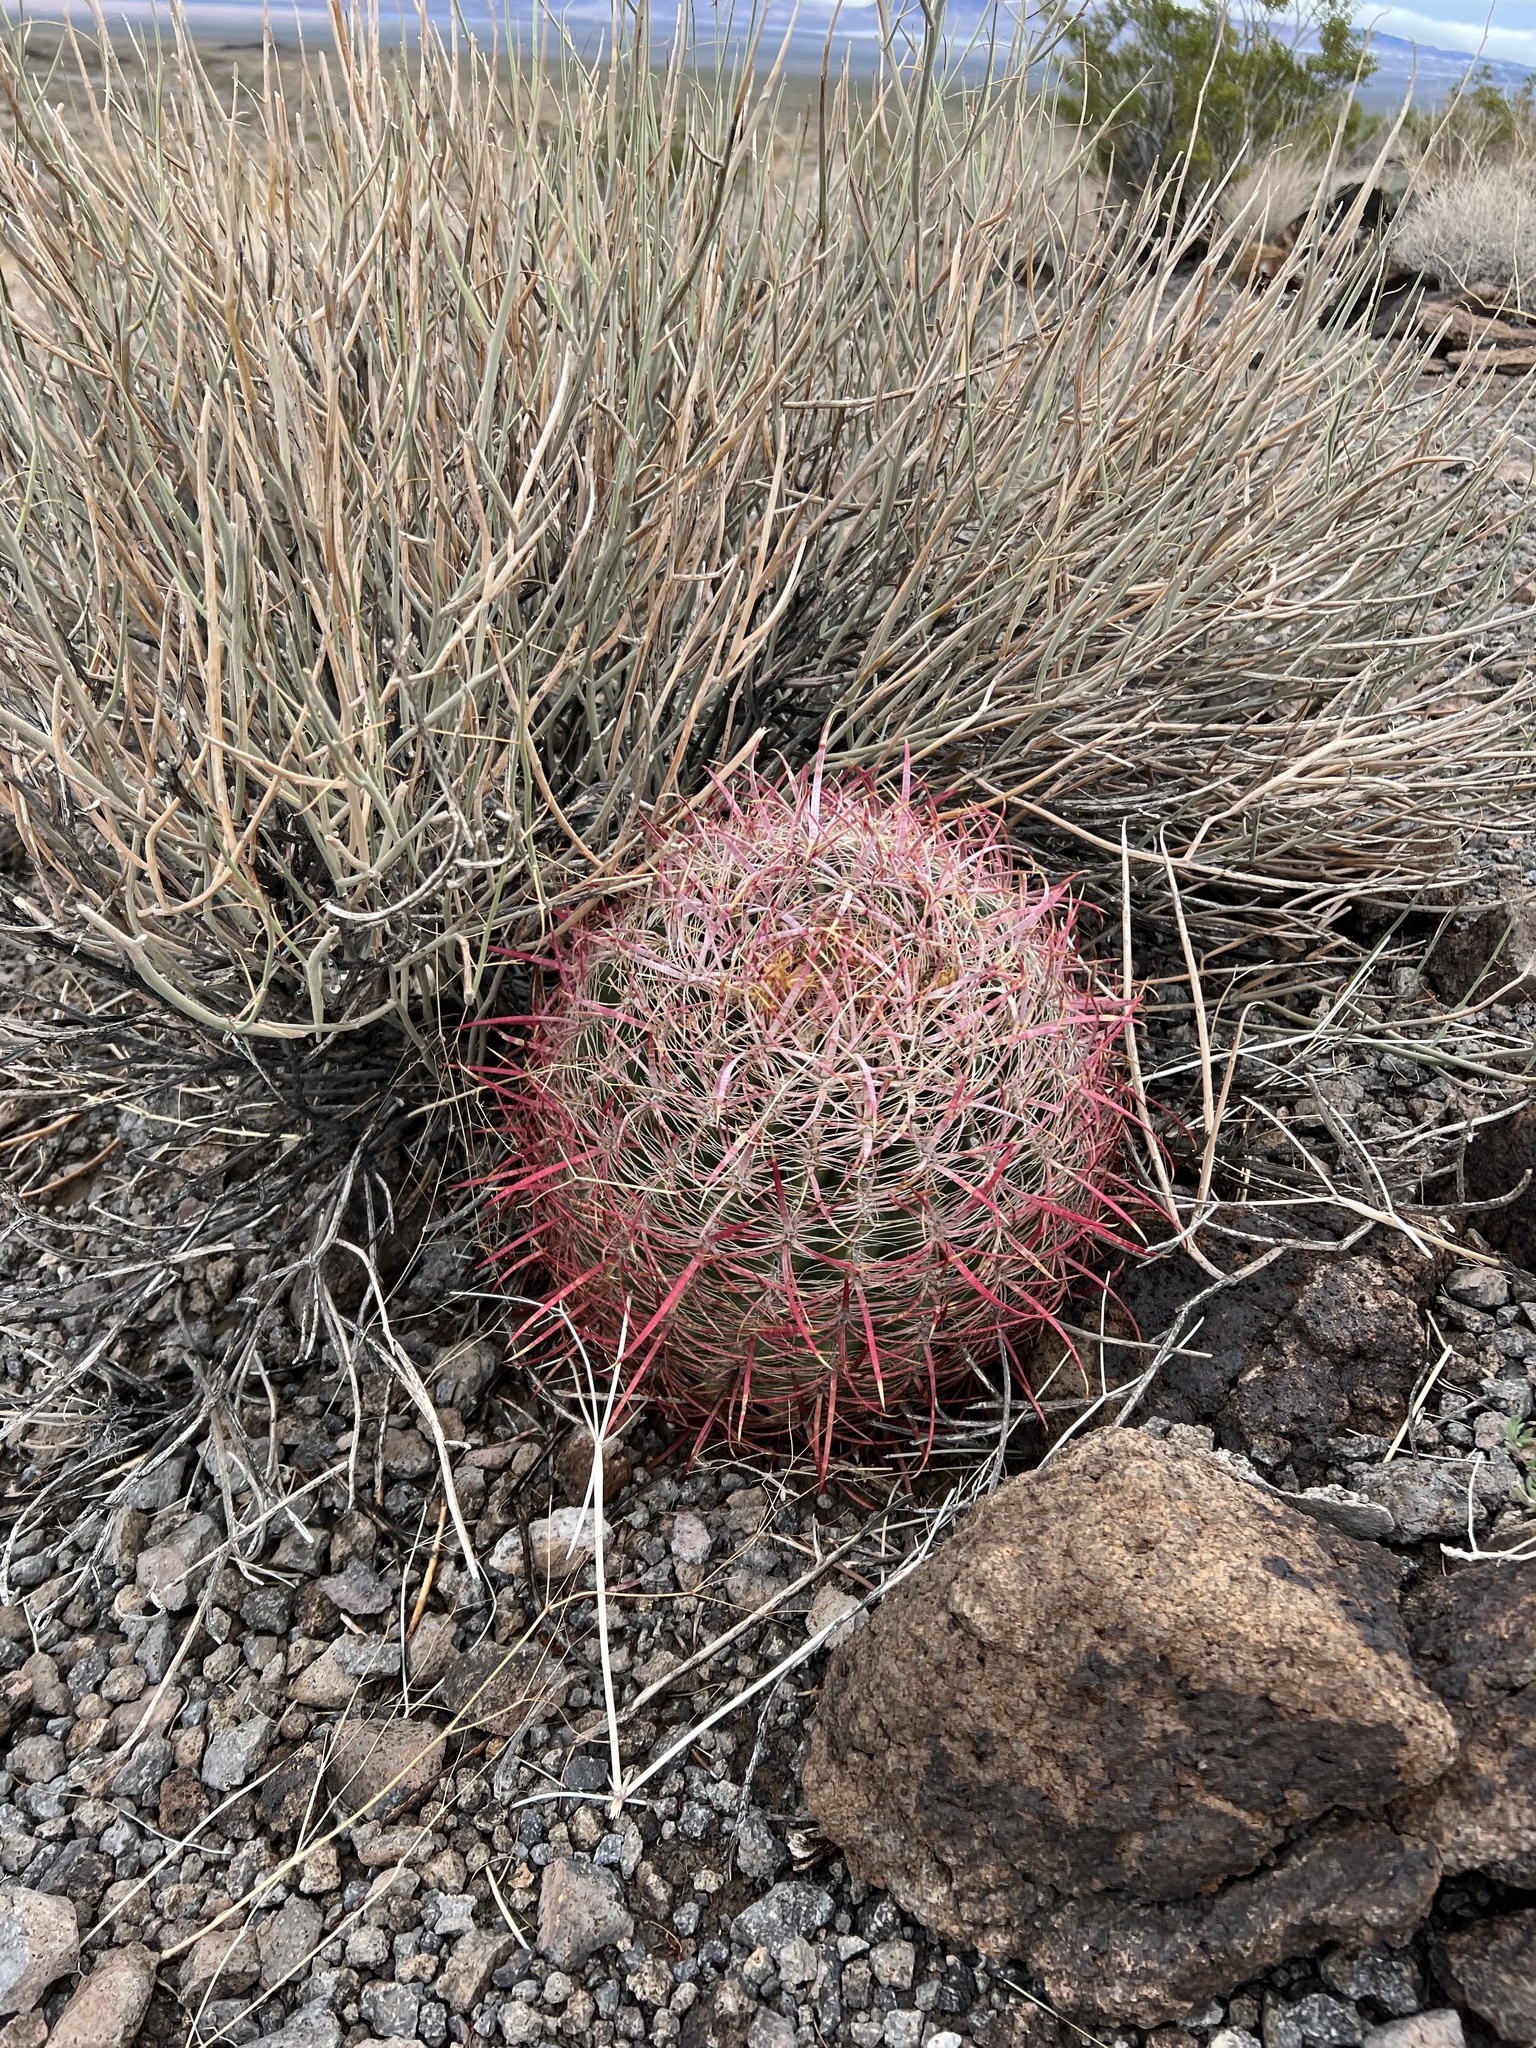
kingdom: Plantae
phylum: Tracheophyta
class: Magnoliopsida
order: Caryophyllales
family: Cactaceae
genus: Ferocactus
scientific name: Ferocactus cylindraceus
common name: California barrel cactus
